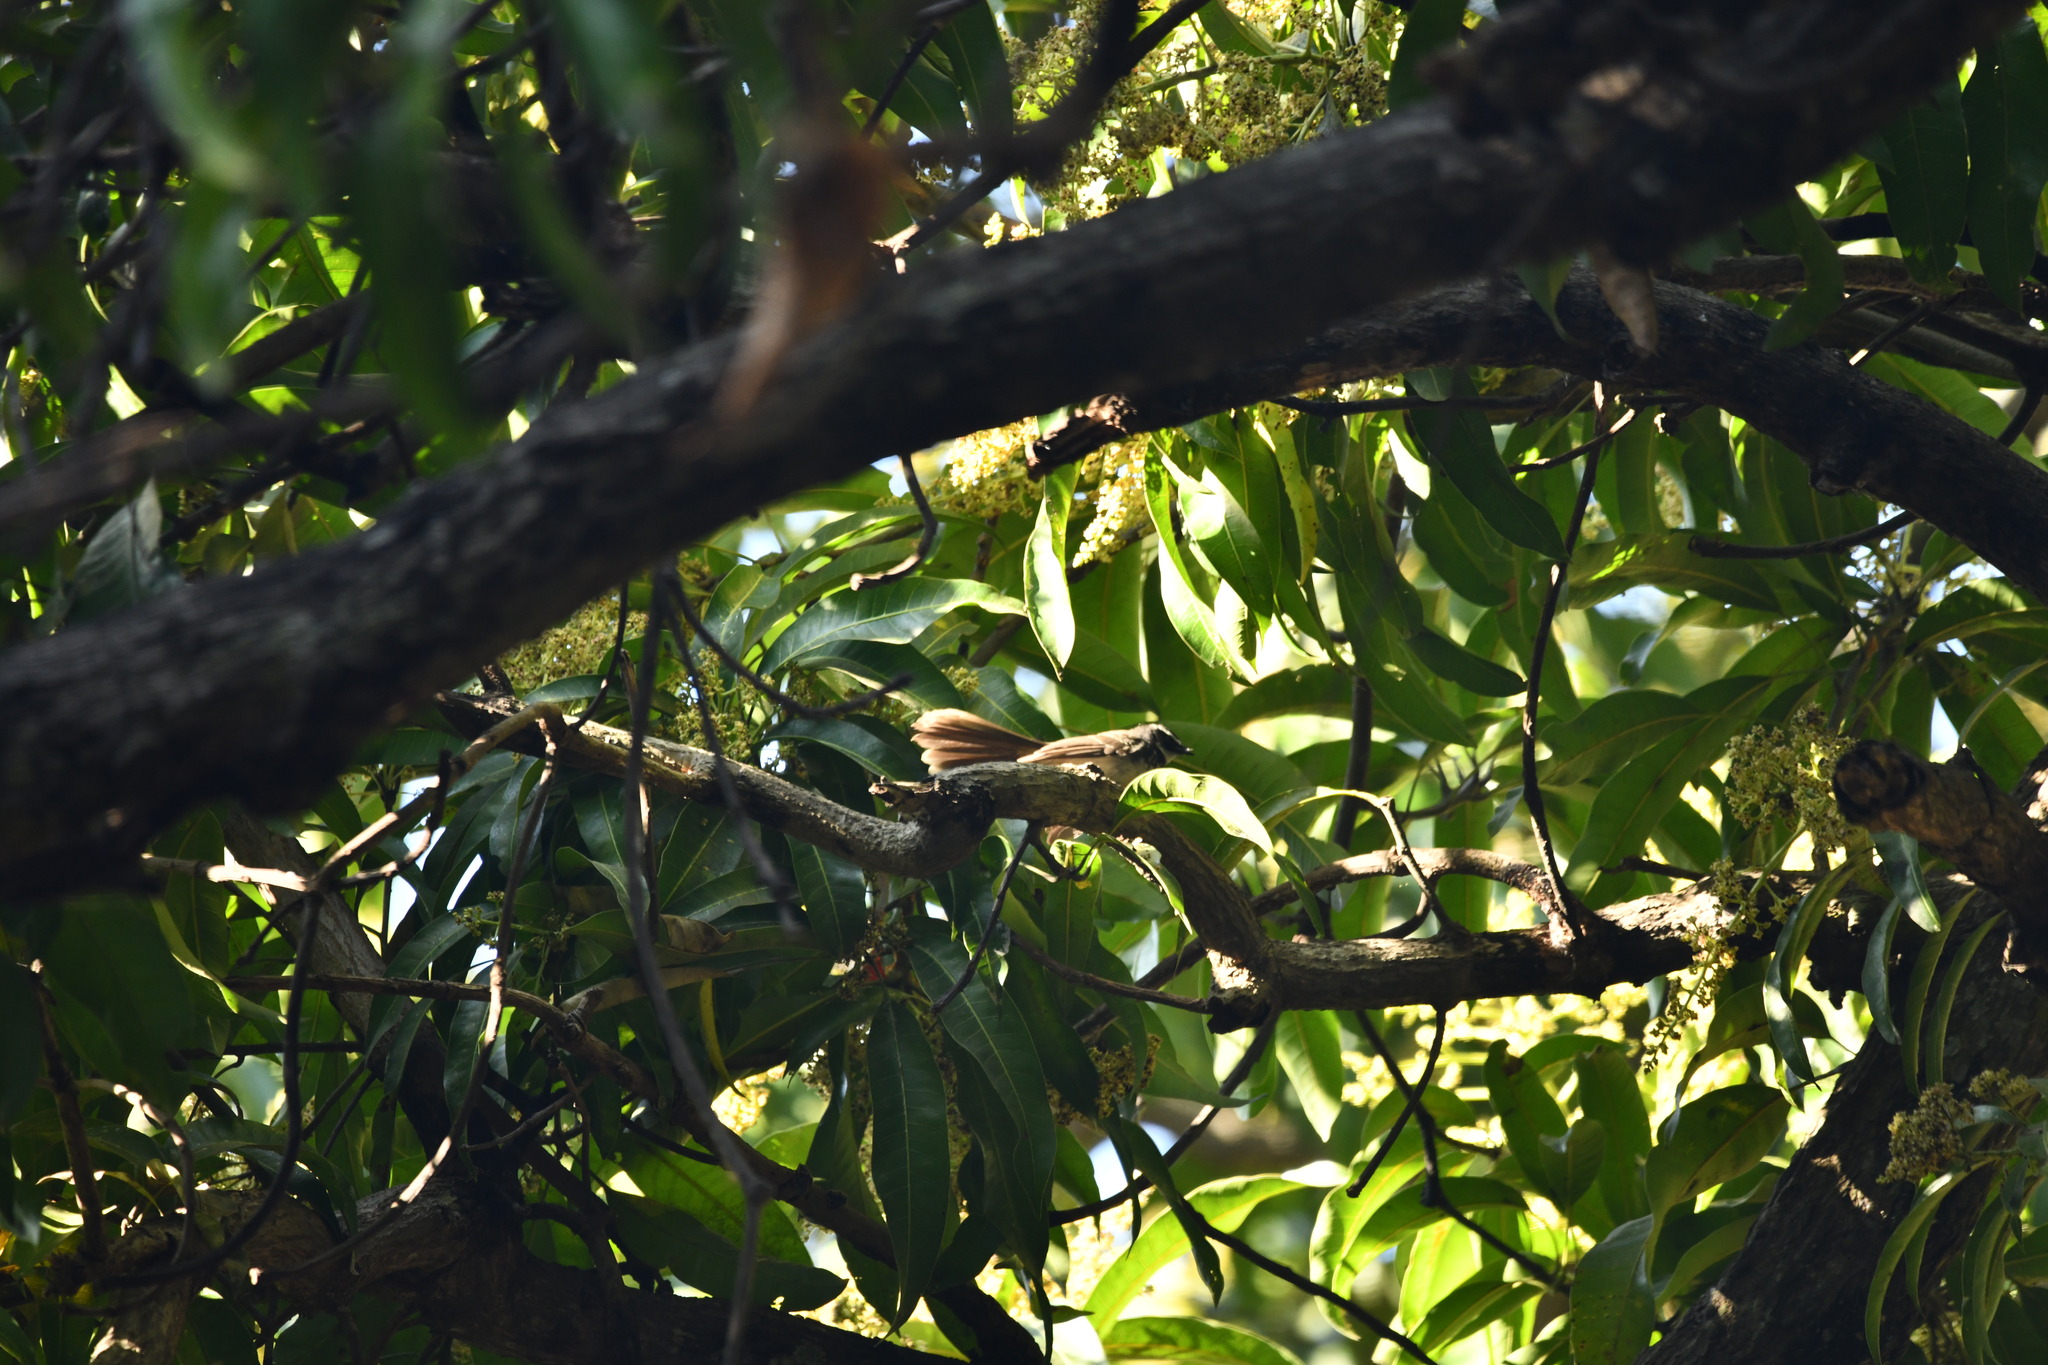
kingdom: Animalia
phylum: Chordata
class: Aves
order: Passeriformes
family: Rhipiduridae
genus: Rhipidura
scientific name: Rhipidura albogularis
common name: White-spotted fantail
